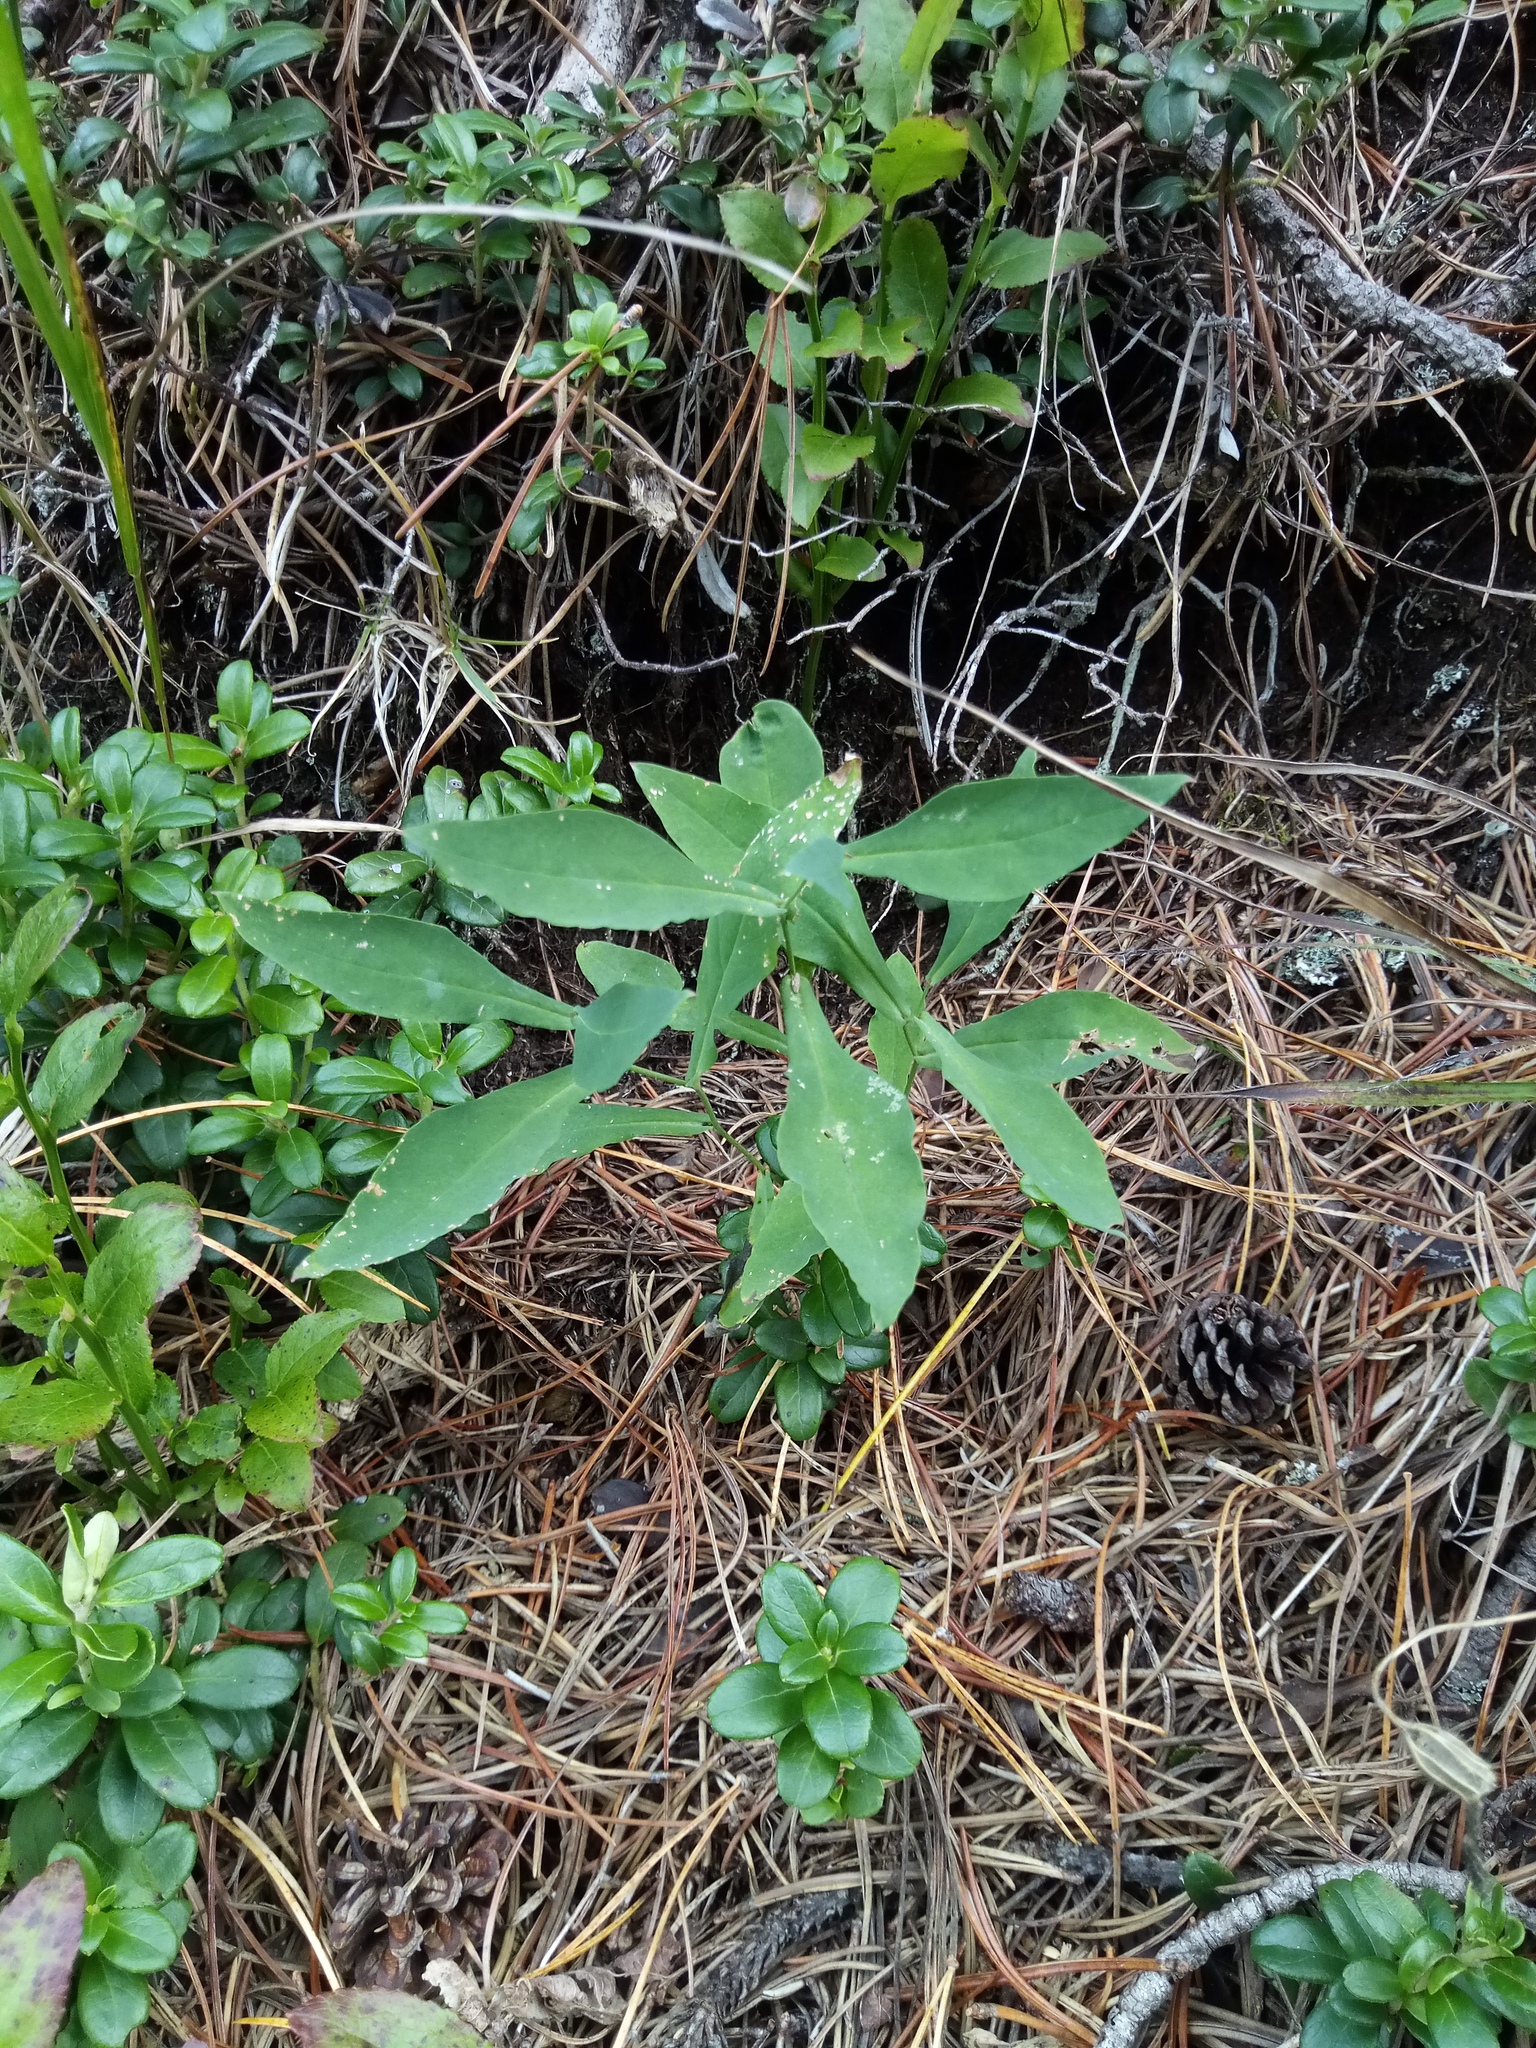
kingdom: Plantae
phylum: Tracheophyta
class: Magnoliopsida
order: Asterales
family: Asteraceae
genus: Prenanthes
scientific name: Prenanthes purpurea
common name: Purple lettuce
